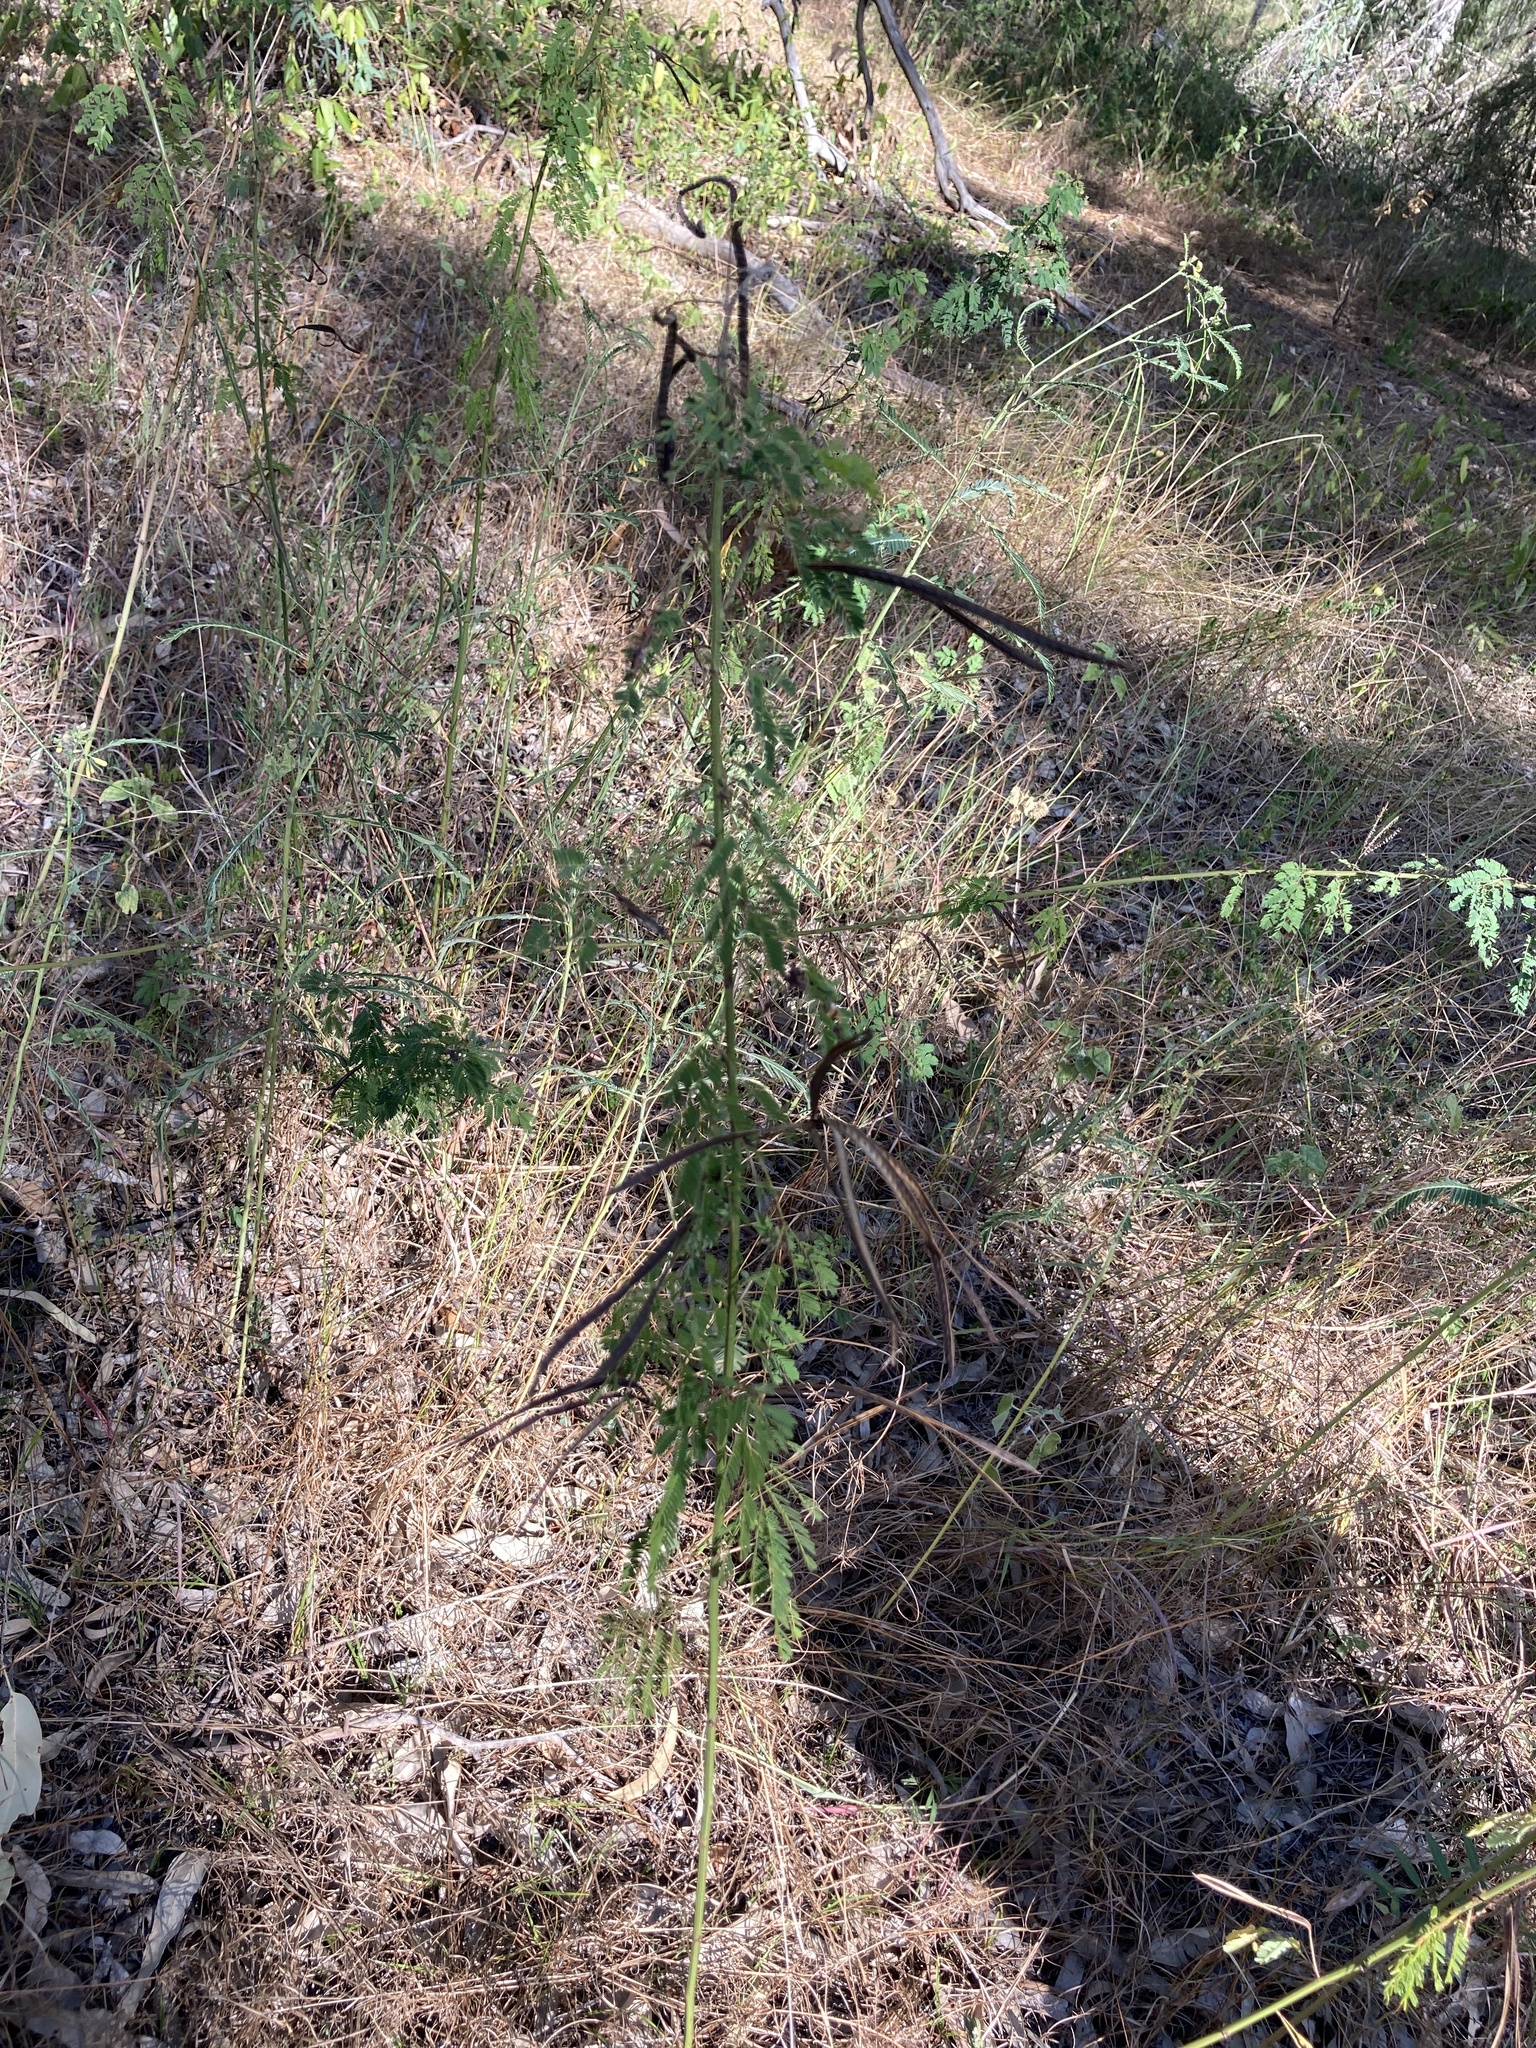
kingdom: Plantae
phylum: Tracheophyta
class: Magnoliopsida
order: Fabales
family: Fabaceae
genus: Desmanthus
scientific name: Desmanthus pernambucanus
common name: Pigeon bundleflower
